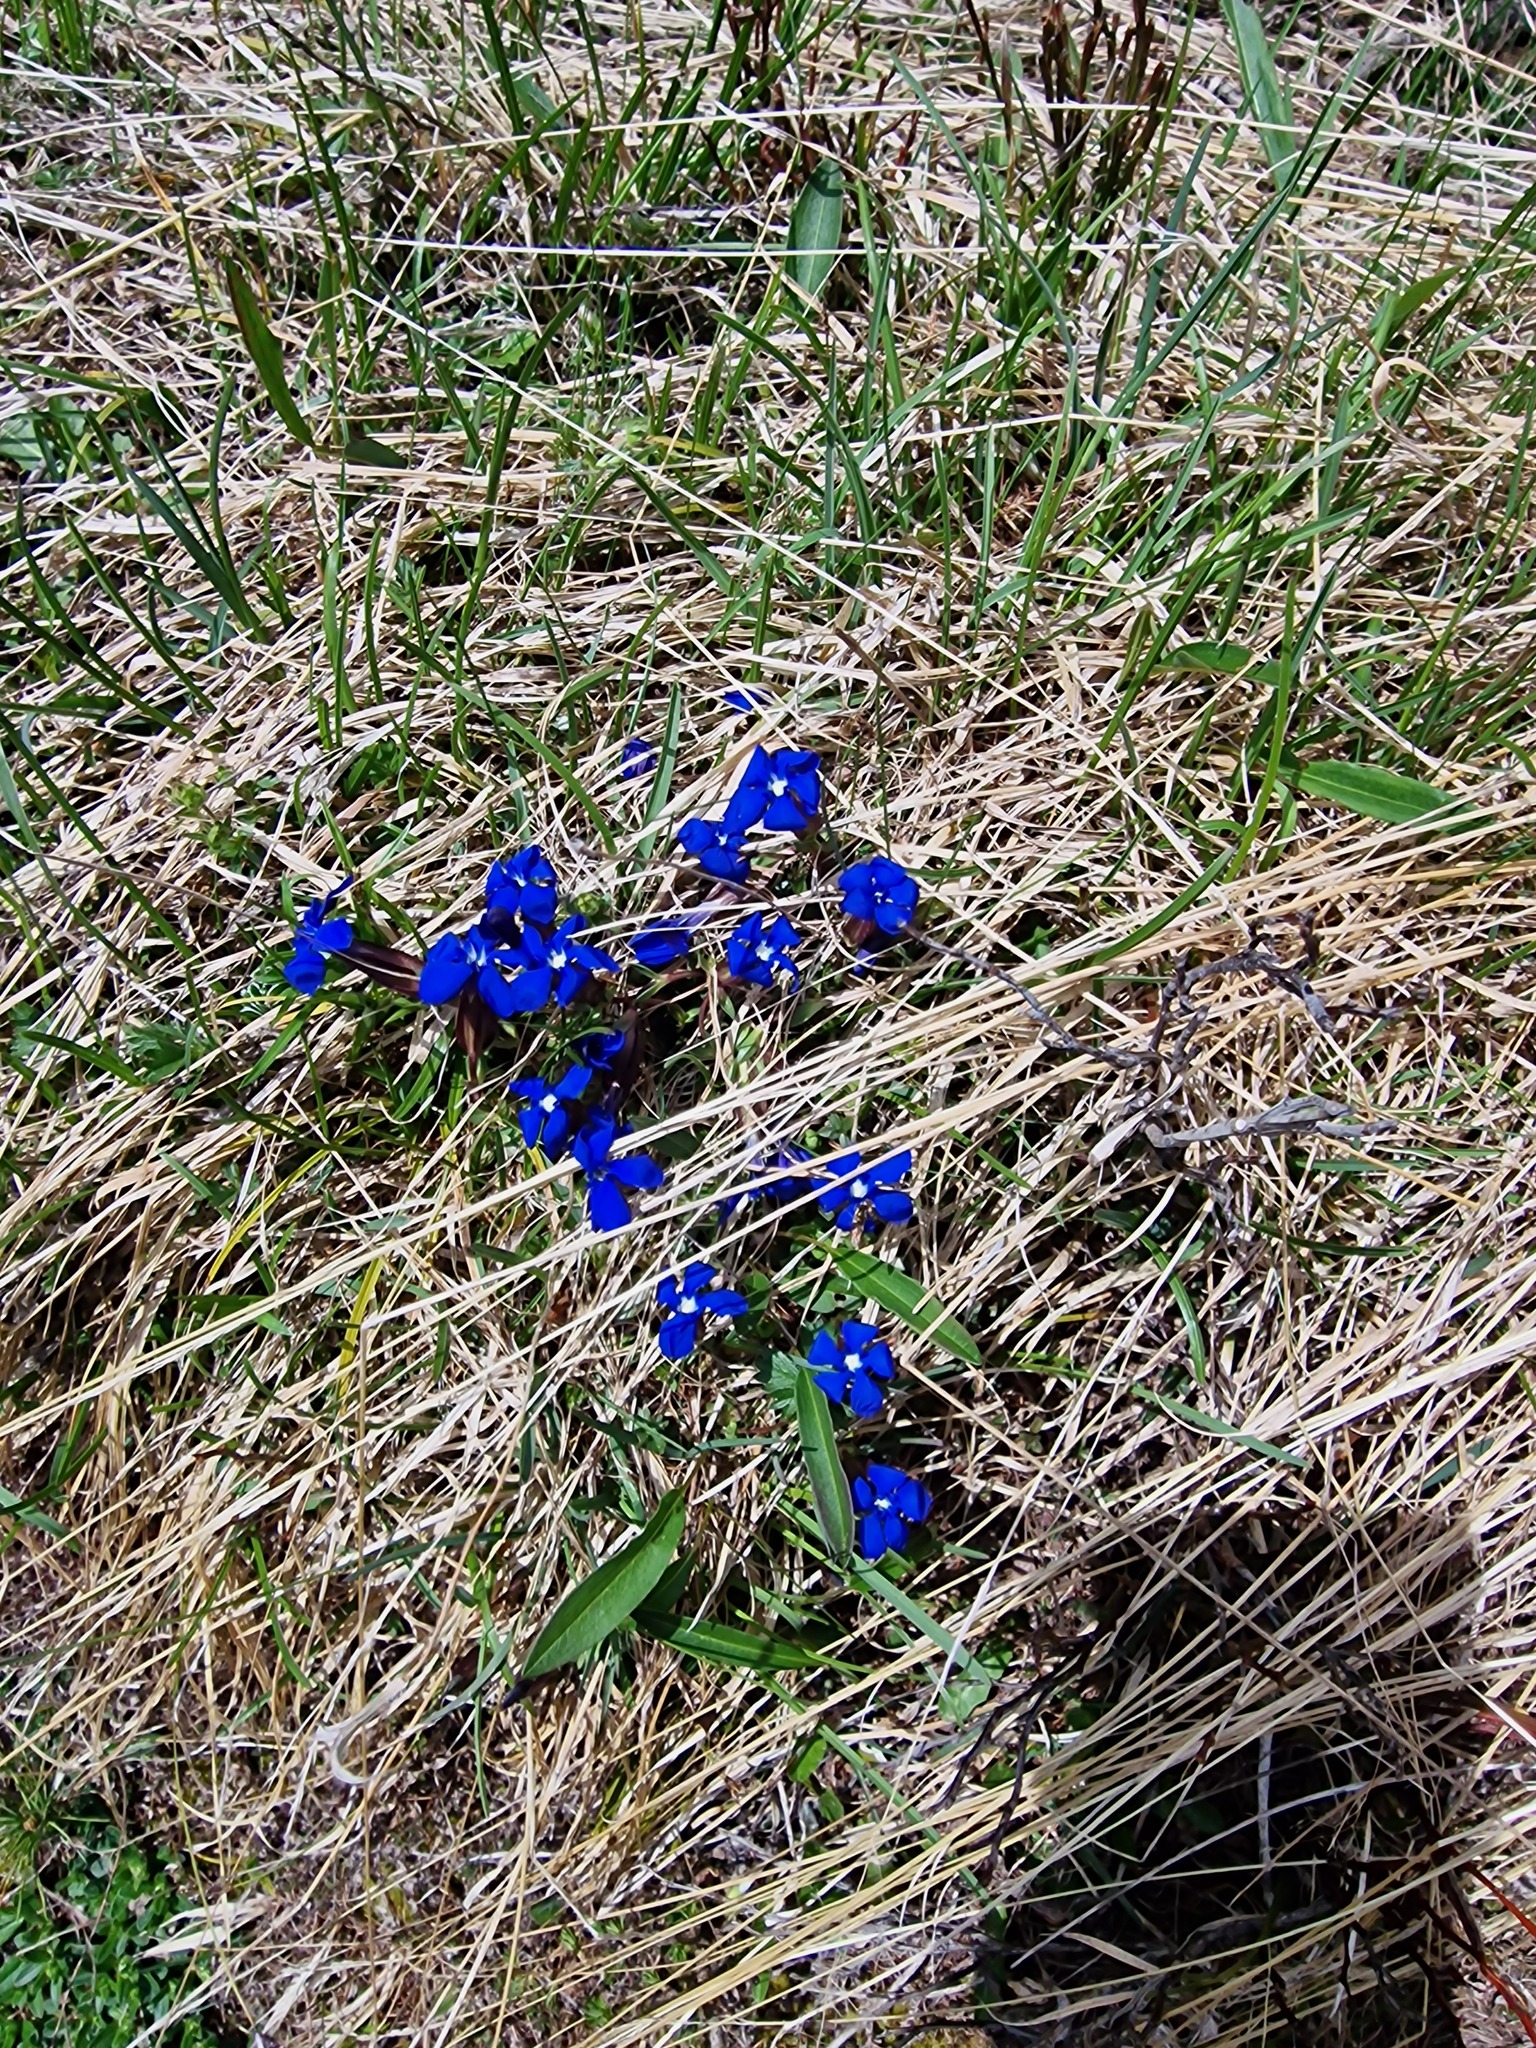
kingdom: Plantae
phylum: Tracheophyta
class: Magnoliopsida
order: Gentianales
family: Gentianaceae
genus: Gentiana
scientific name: Gentiana verna
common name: Spring gentian
